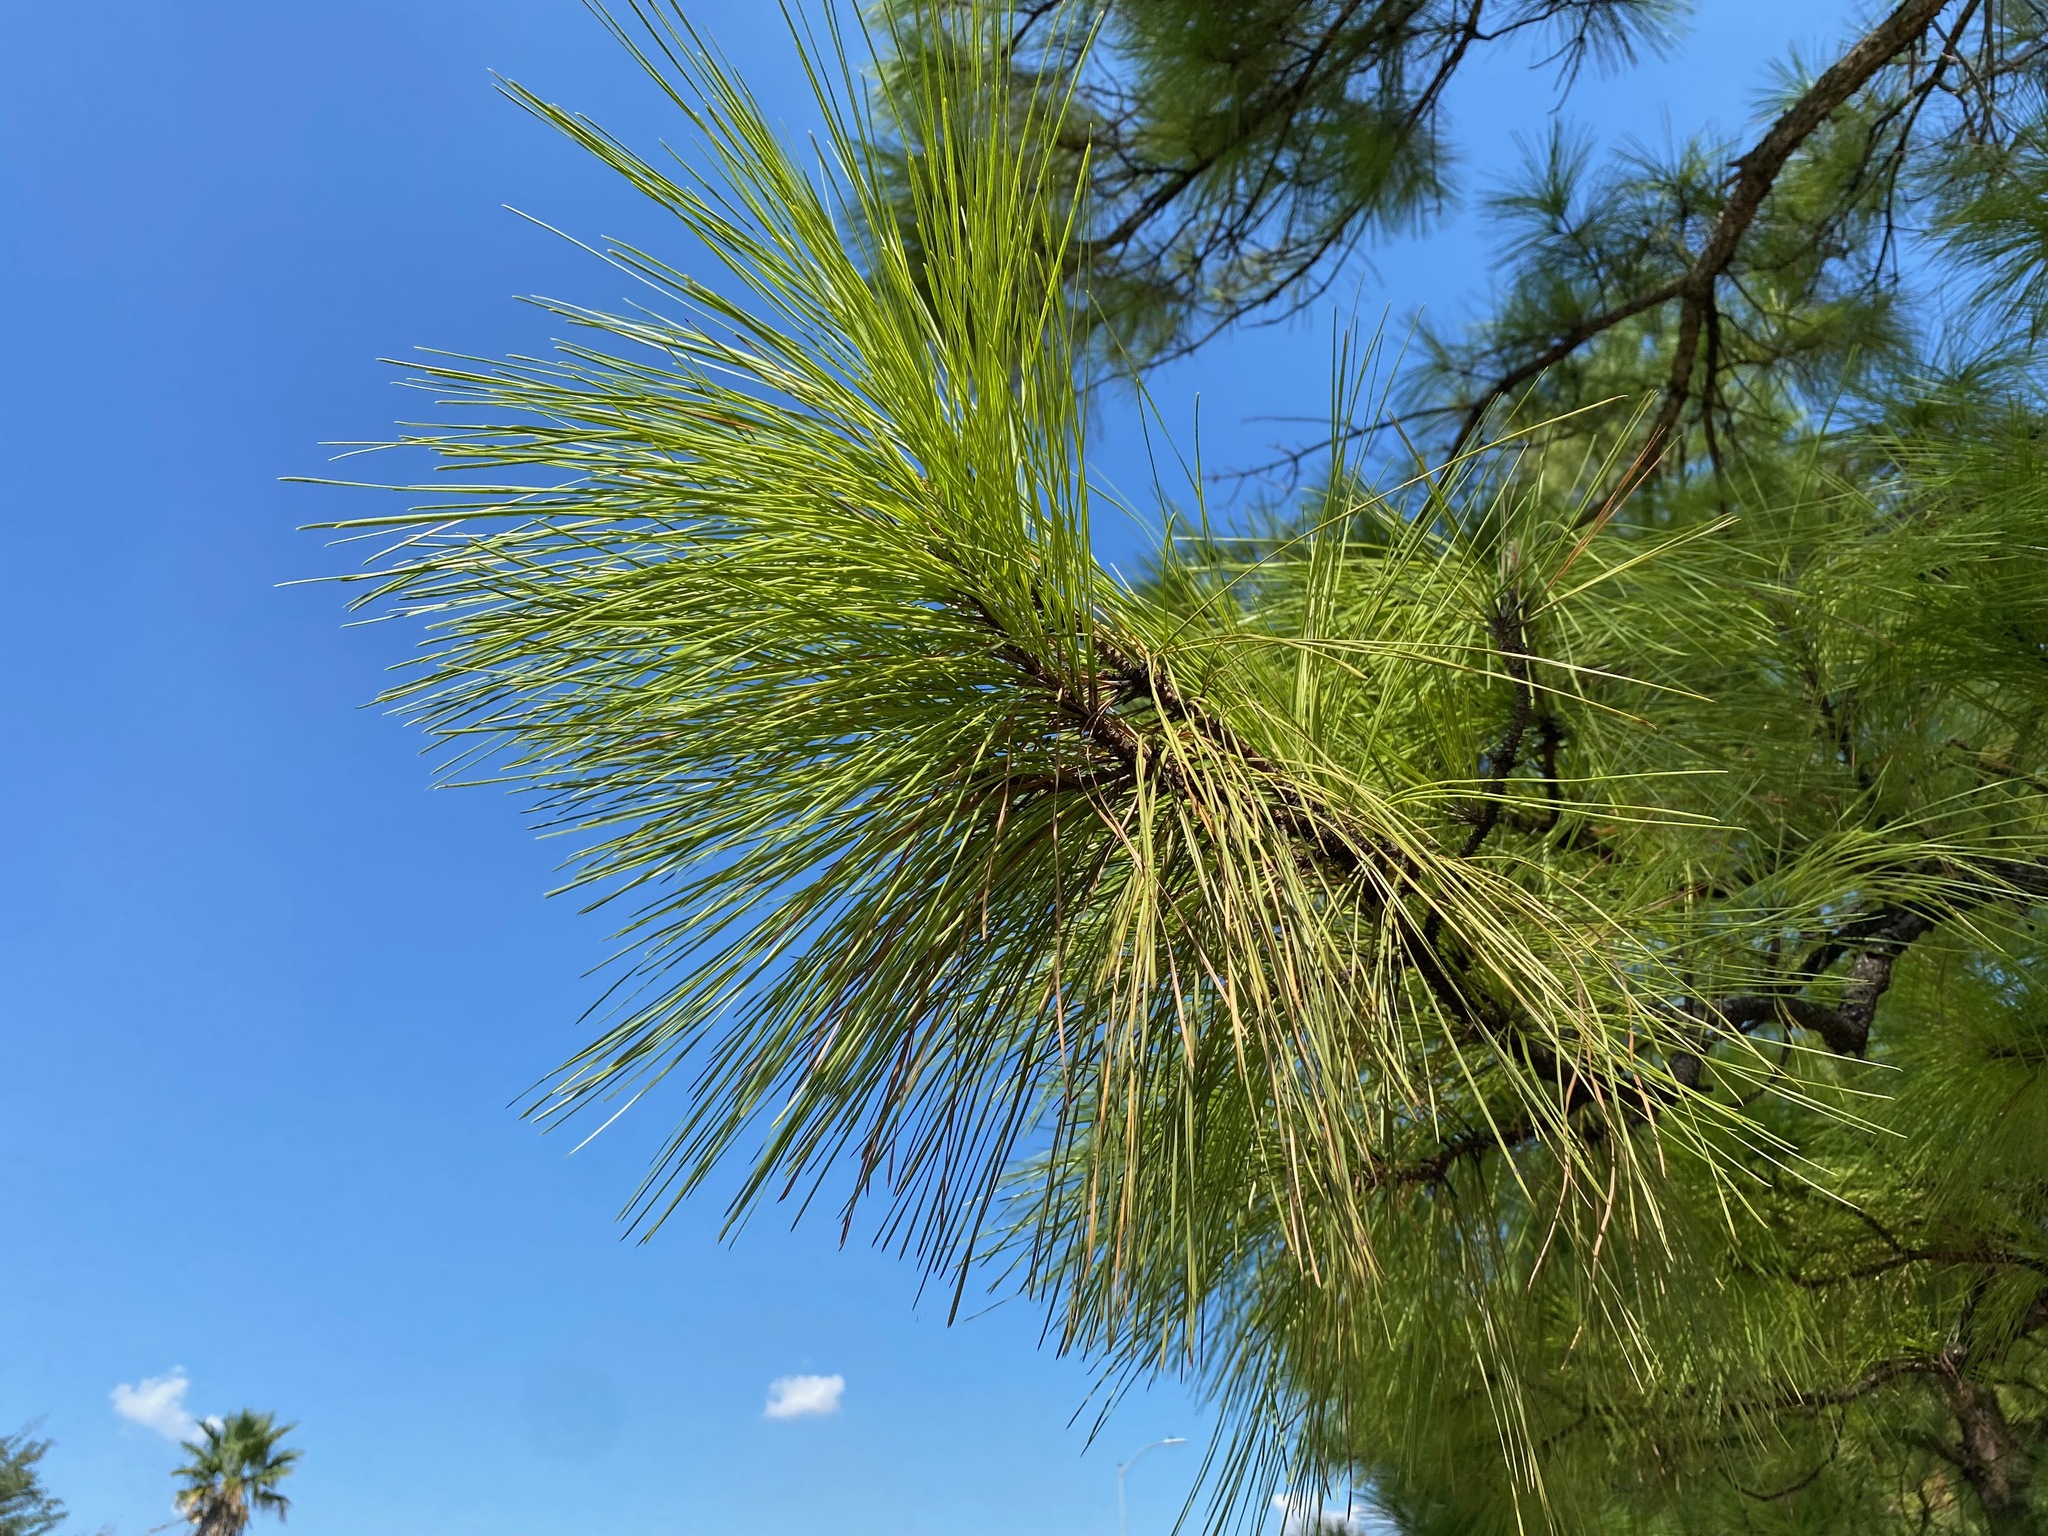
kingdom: Plantae
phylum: Tracheophyta
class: Pinopsida
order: Pinales
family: Pinaceae
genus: Pinus
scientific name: Pinus taeda
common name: Loblolly pine
